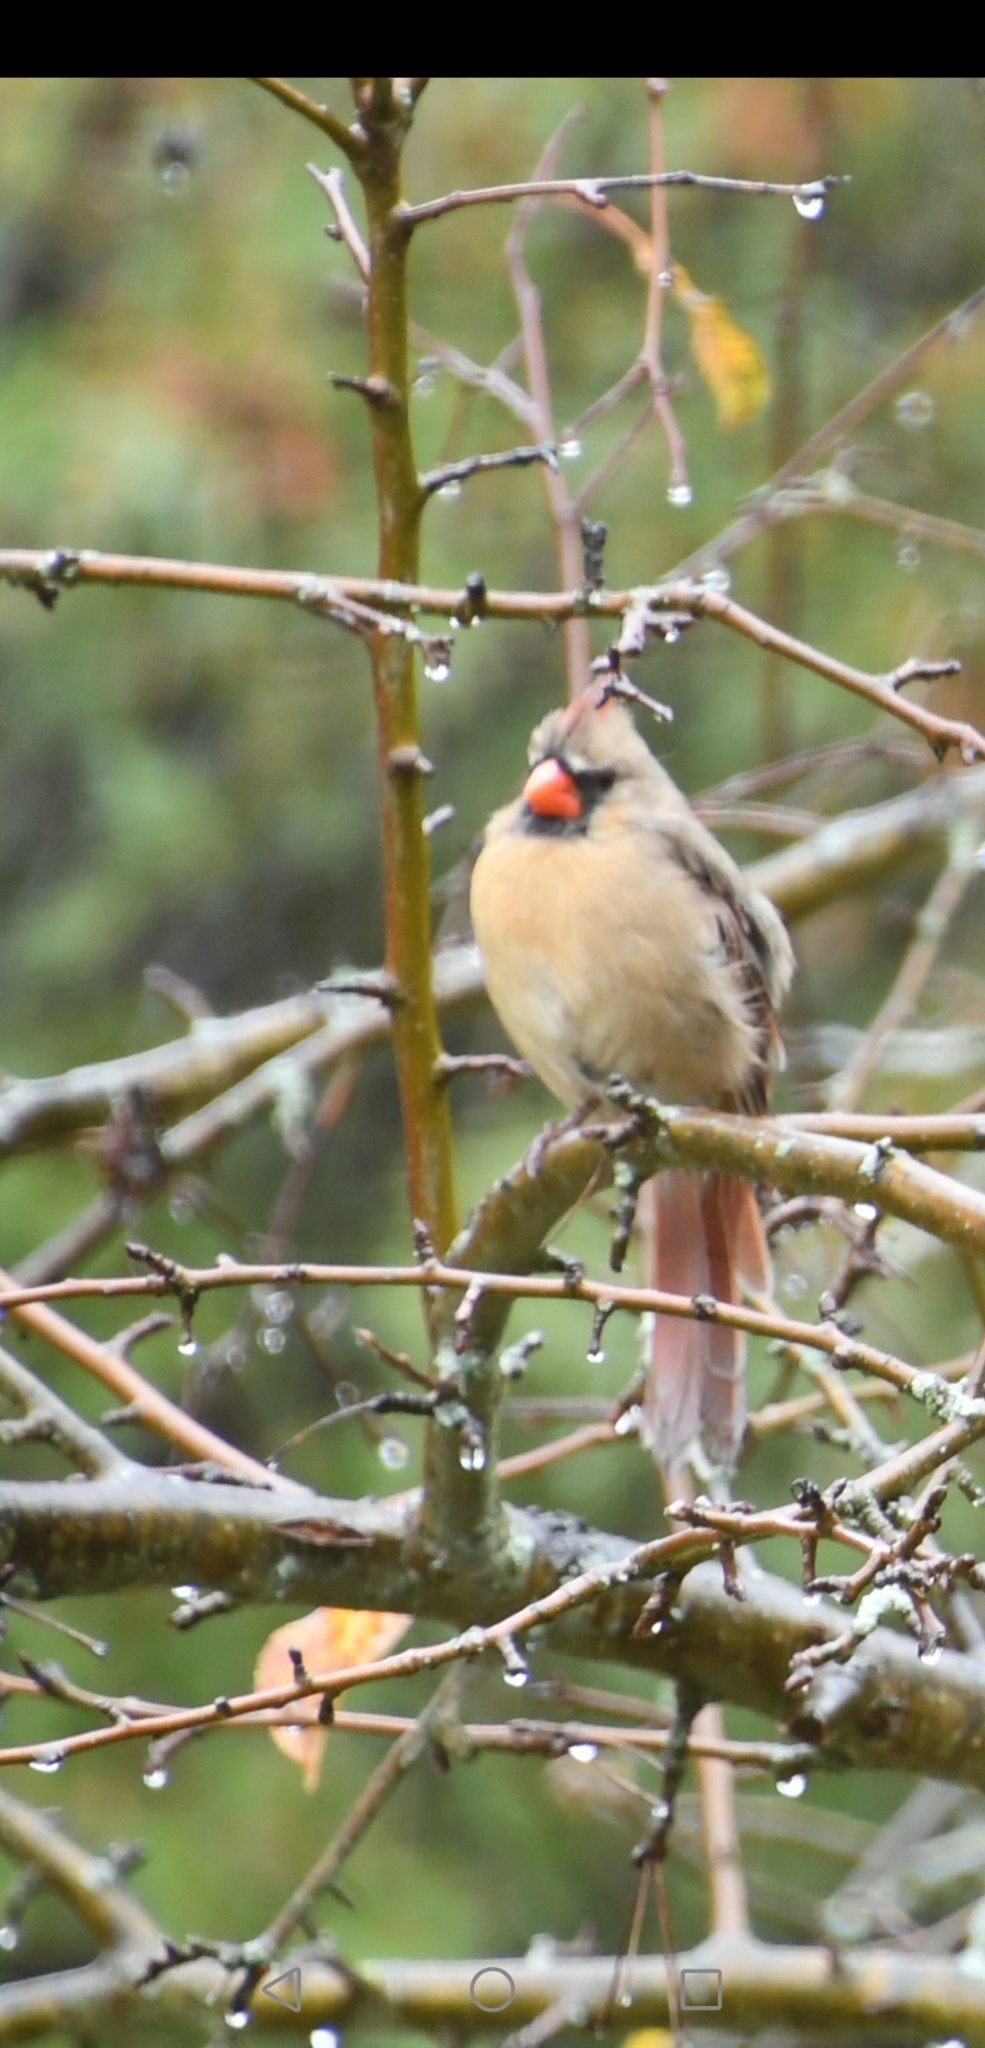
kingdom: Animalia
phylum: Chordata
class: Aves
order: Passeriformes
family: Cardinalidae
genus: Cardinalis
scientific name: Cardinalis cardinalis
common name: Northern cardinal
